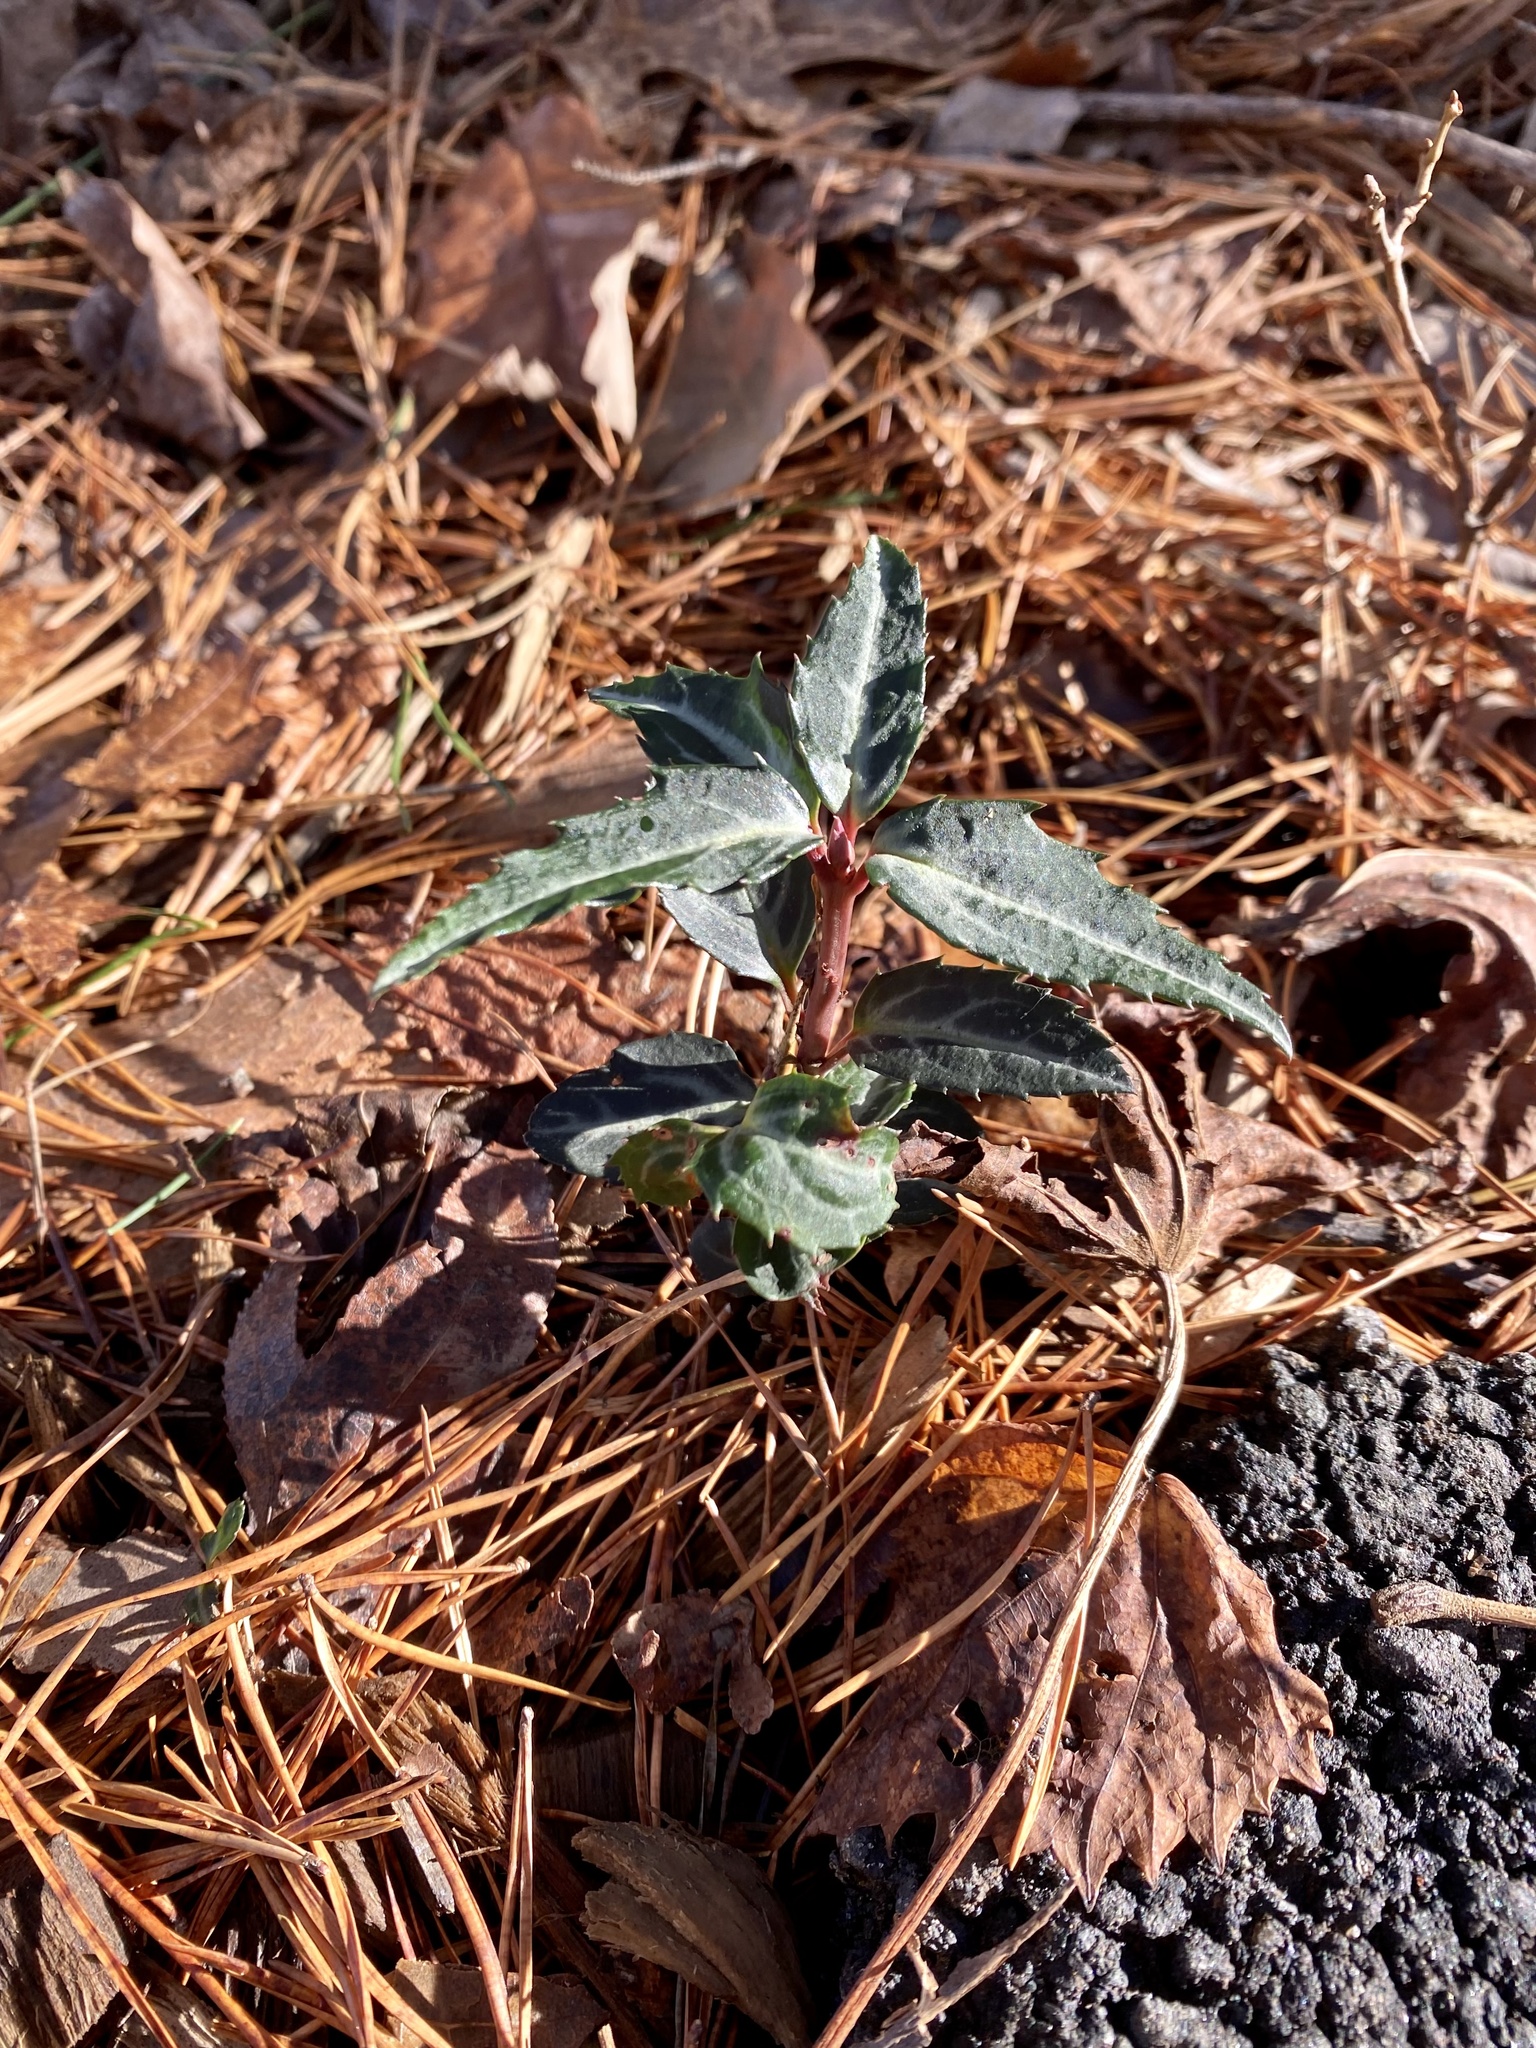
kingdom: Plantae
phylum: Tracheophyta
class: Magnoliopsida
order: Ericales
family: Ericaceae
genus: Chimaphila
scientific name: Chimaphila maculata
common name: Spotted pipsissewa
